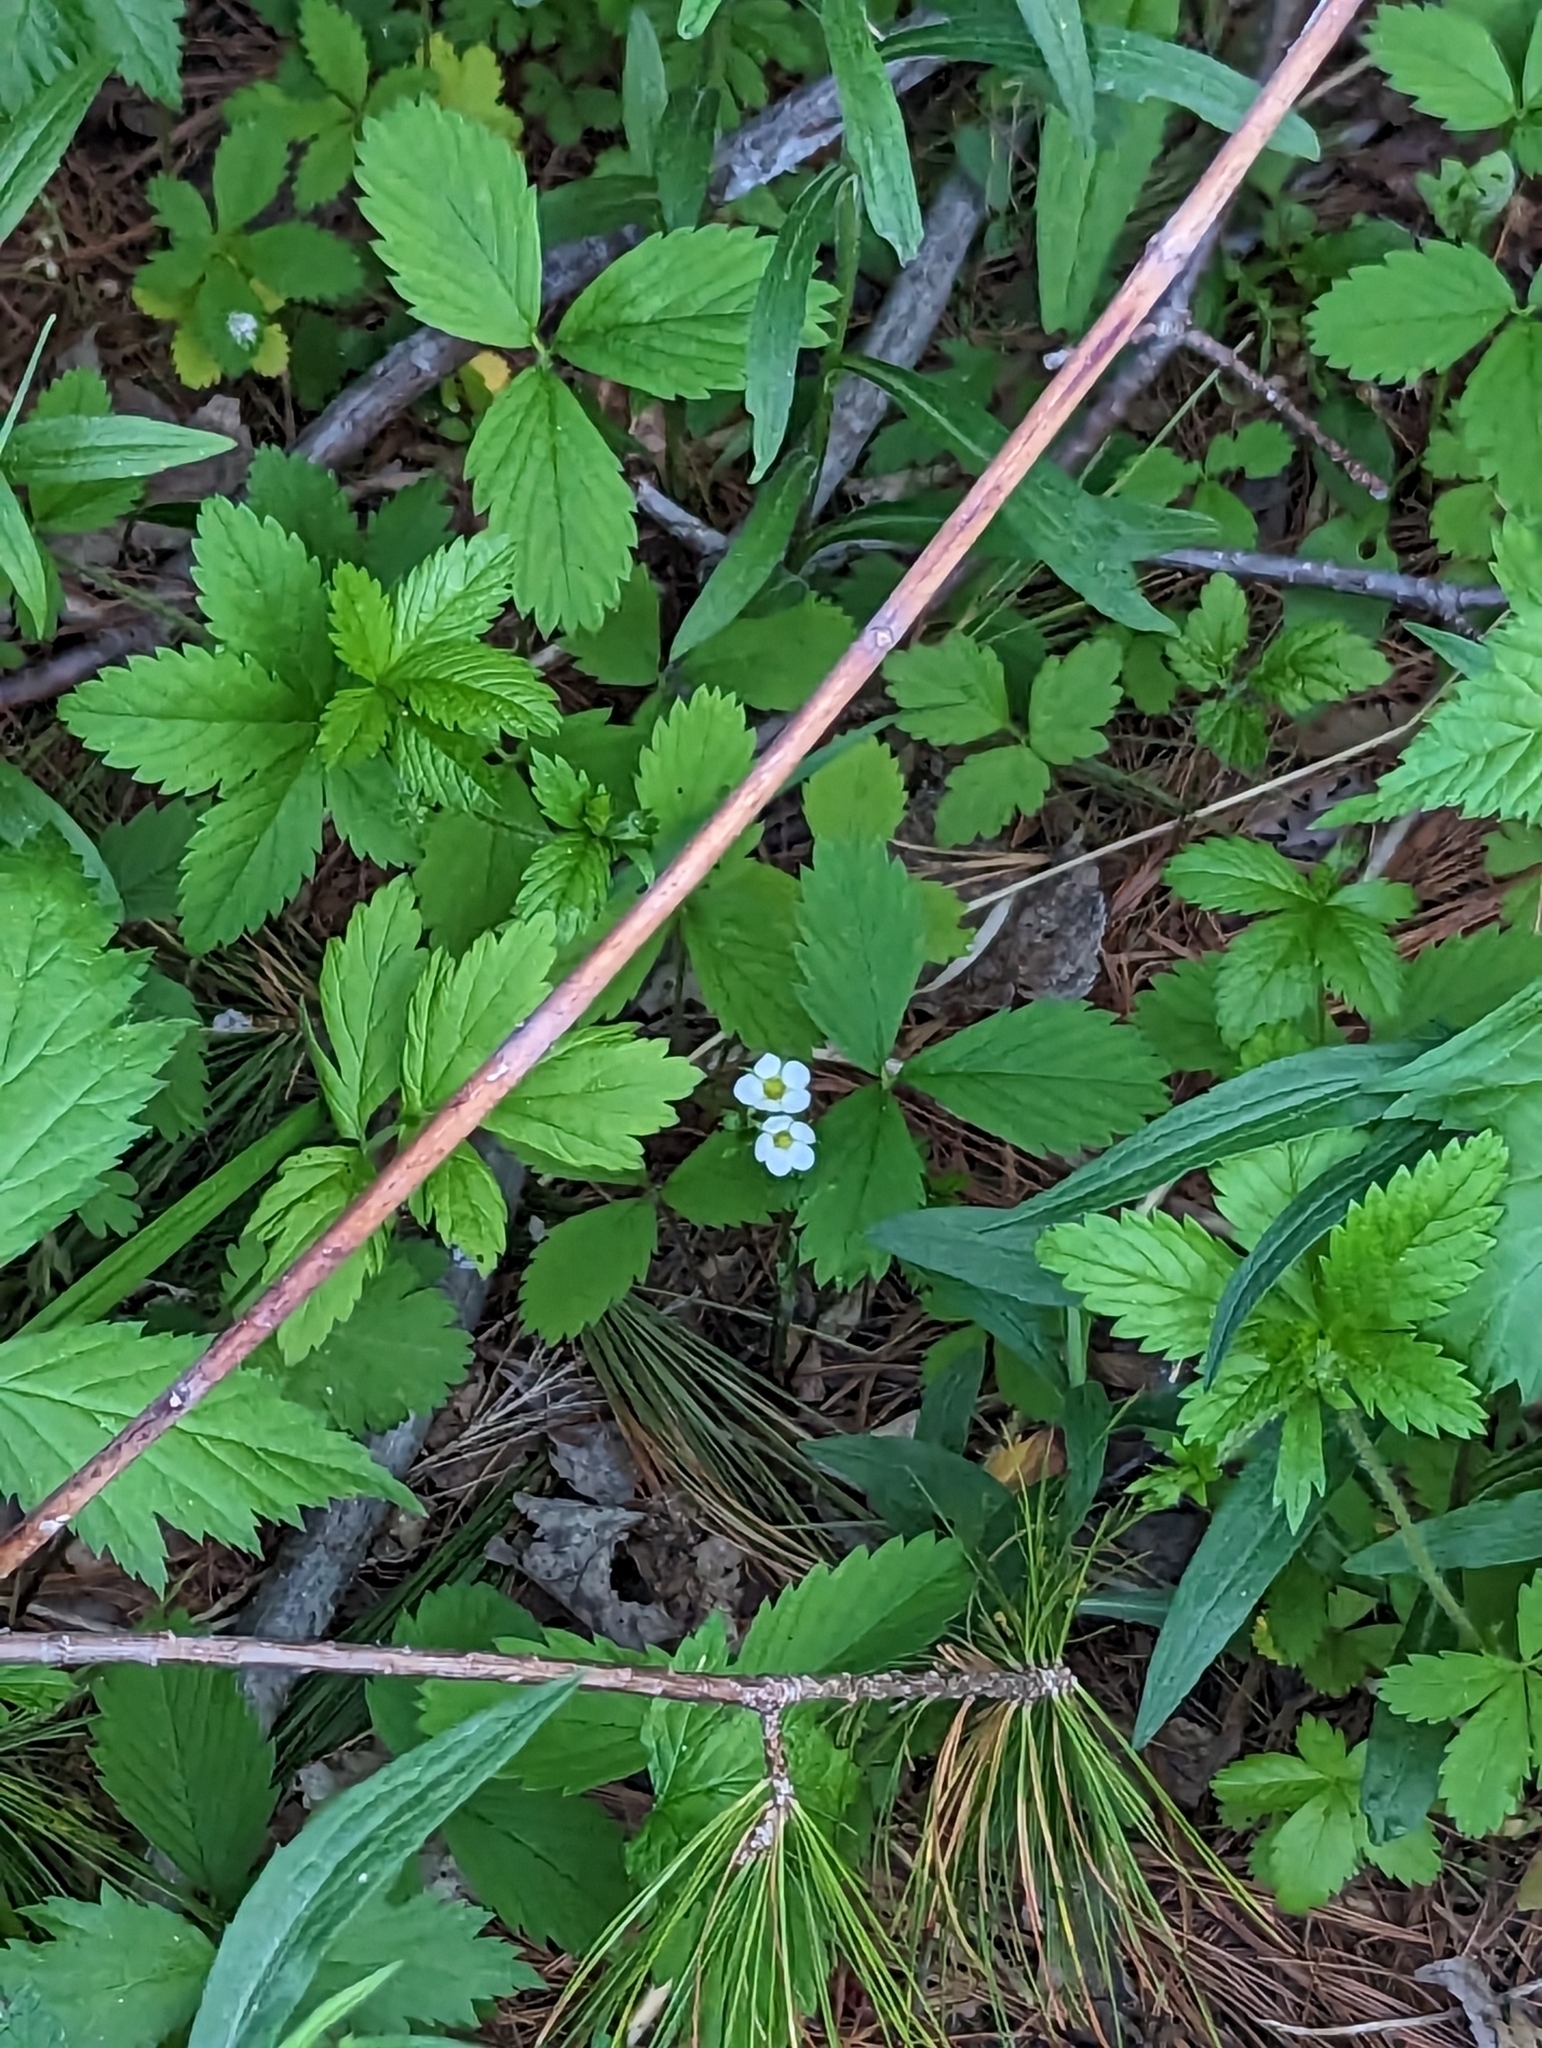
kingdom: Plantae
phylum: Tracheophyta
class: Magnoliopsida
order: Rosales
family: Rosaceae
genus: Fragaria
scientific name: Fragaria virginiana
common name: Thickleaved wild strawberry
